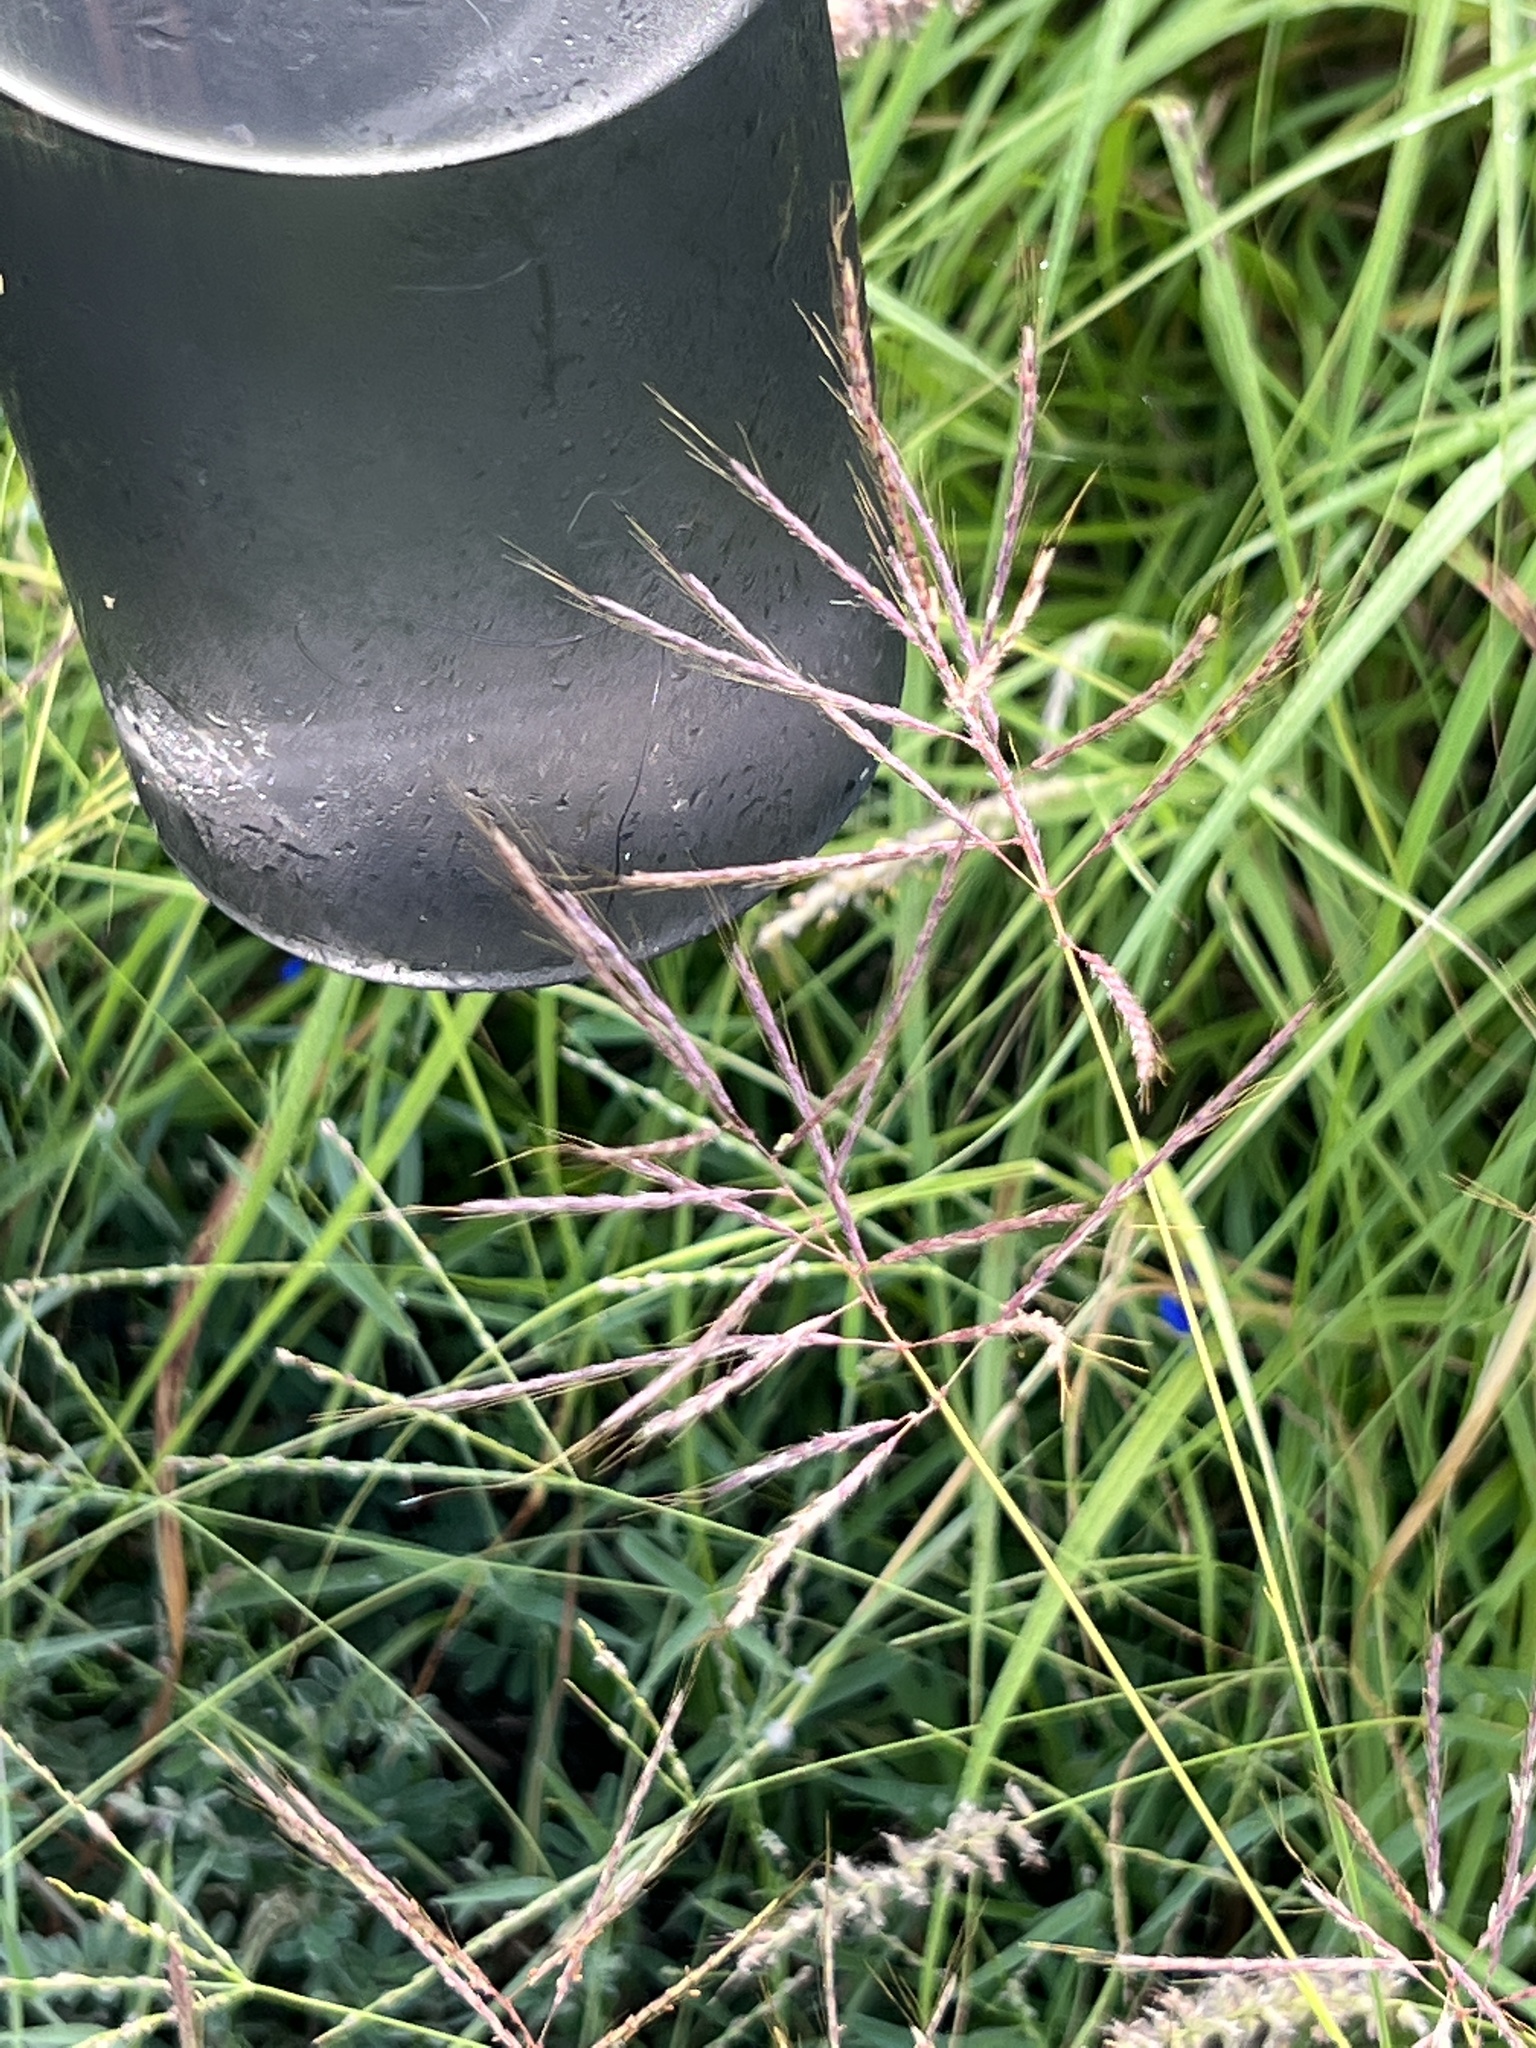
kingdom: Plantae
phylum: Tracheophyta
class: Liliopsida
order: Poales
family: Poaceae
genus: Bothriochloa
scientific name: Bothriochloa bladhii
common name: Caucasian bluestem
